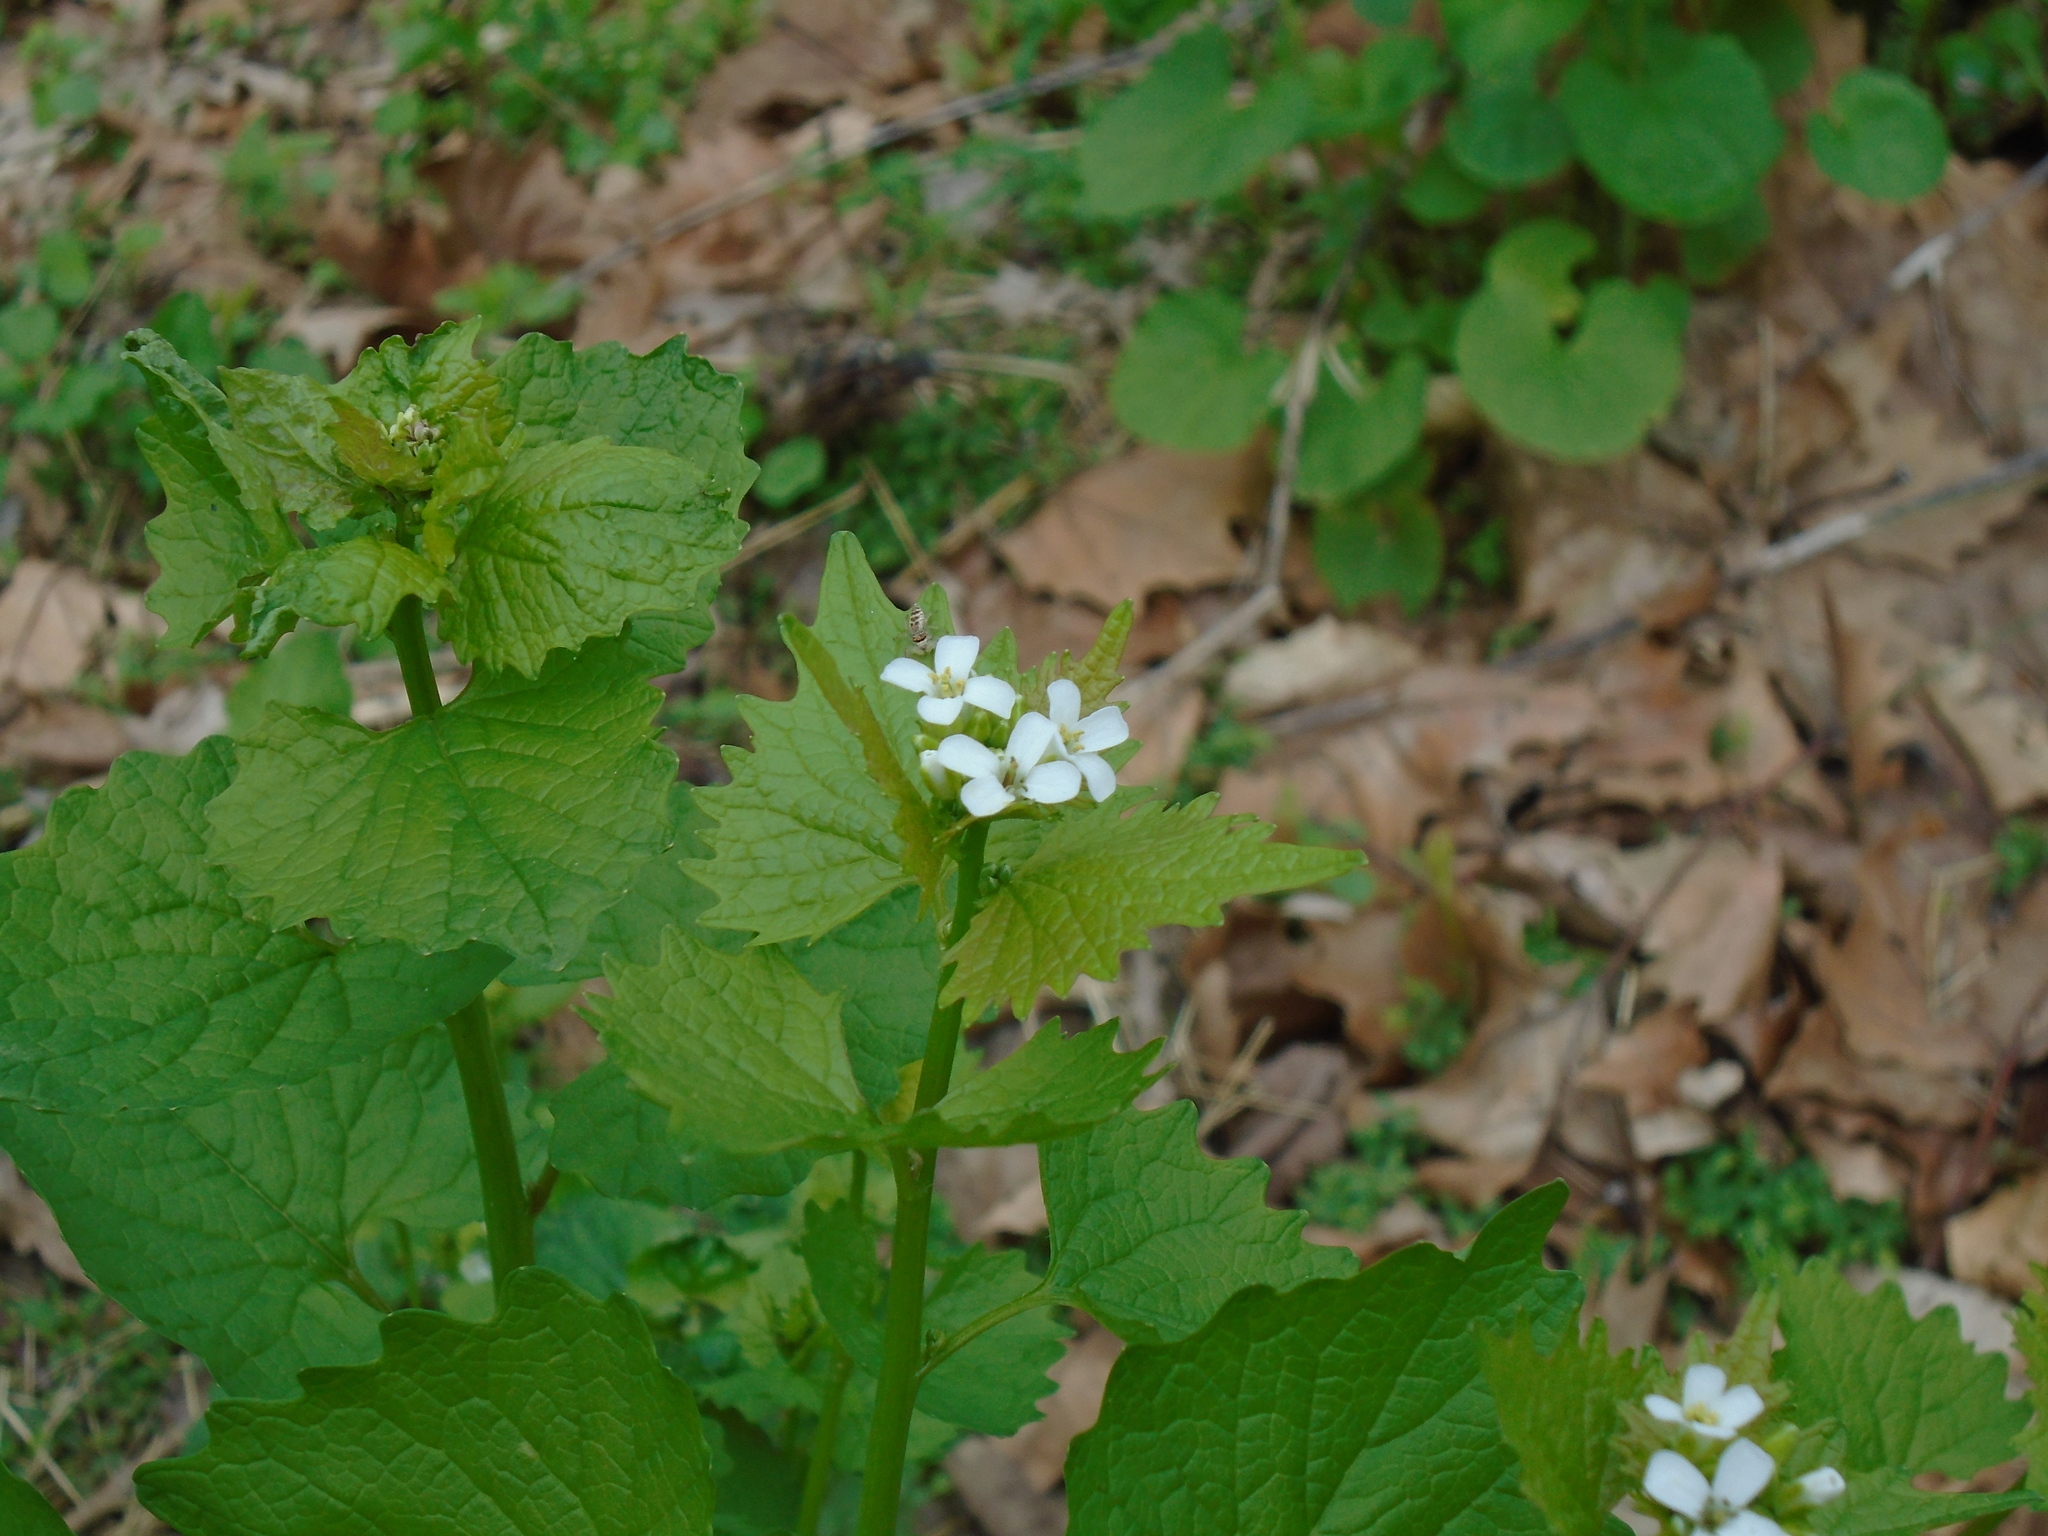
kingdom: Plantae
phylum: Tracheophyta
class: Magnoliopsida
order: Brassicales
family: Brassicaceae
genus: Alliaria
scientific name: Alliaria petiolata
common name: Garlic mustard
